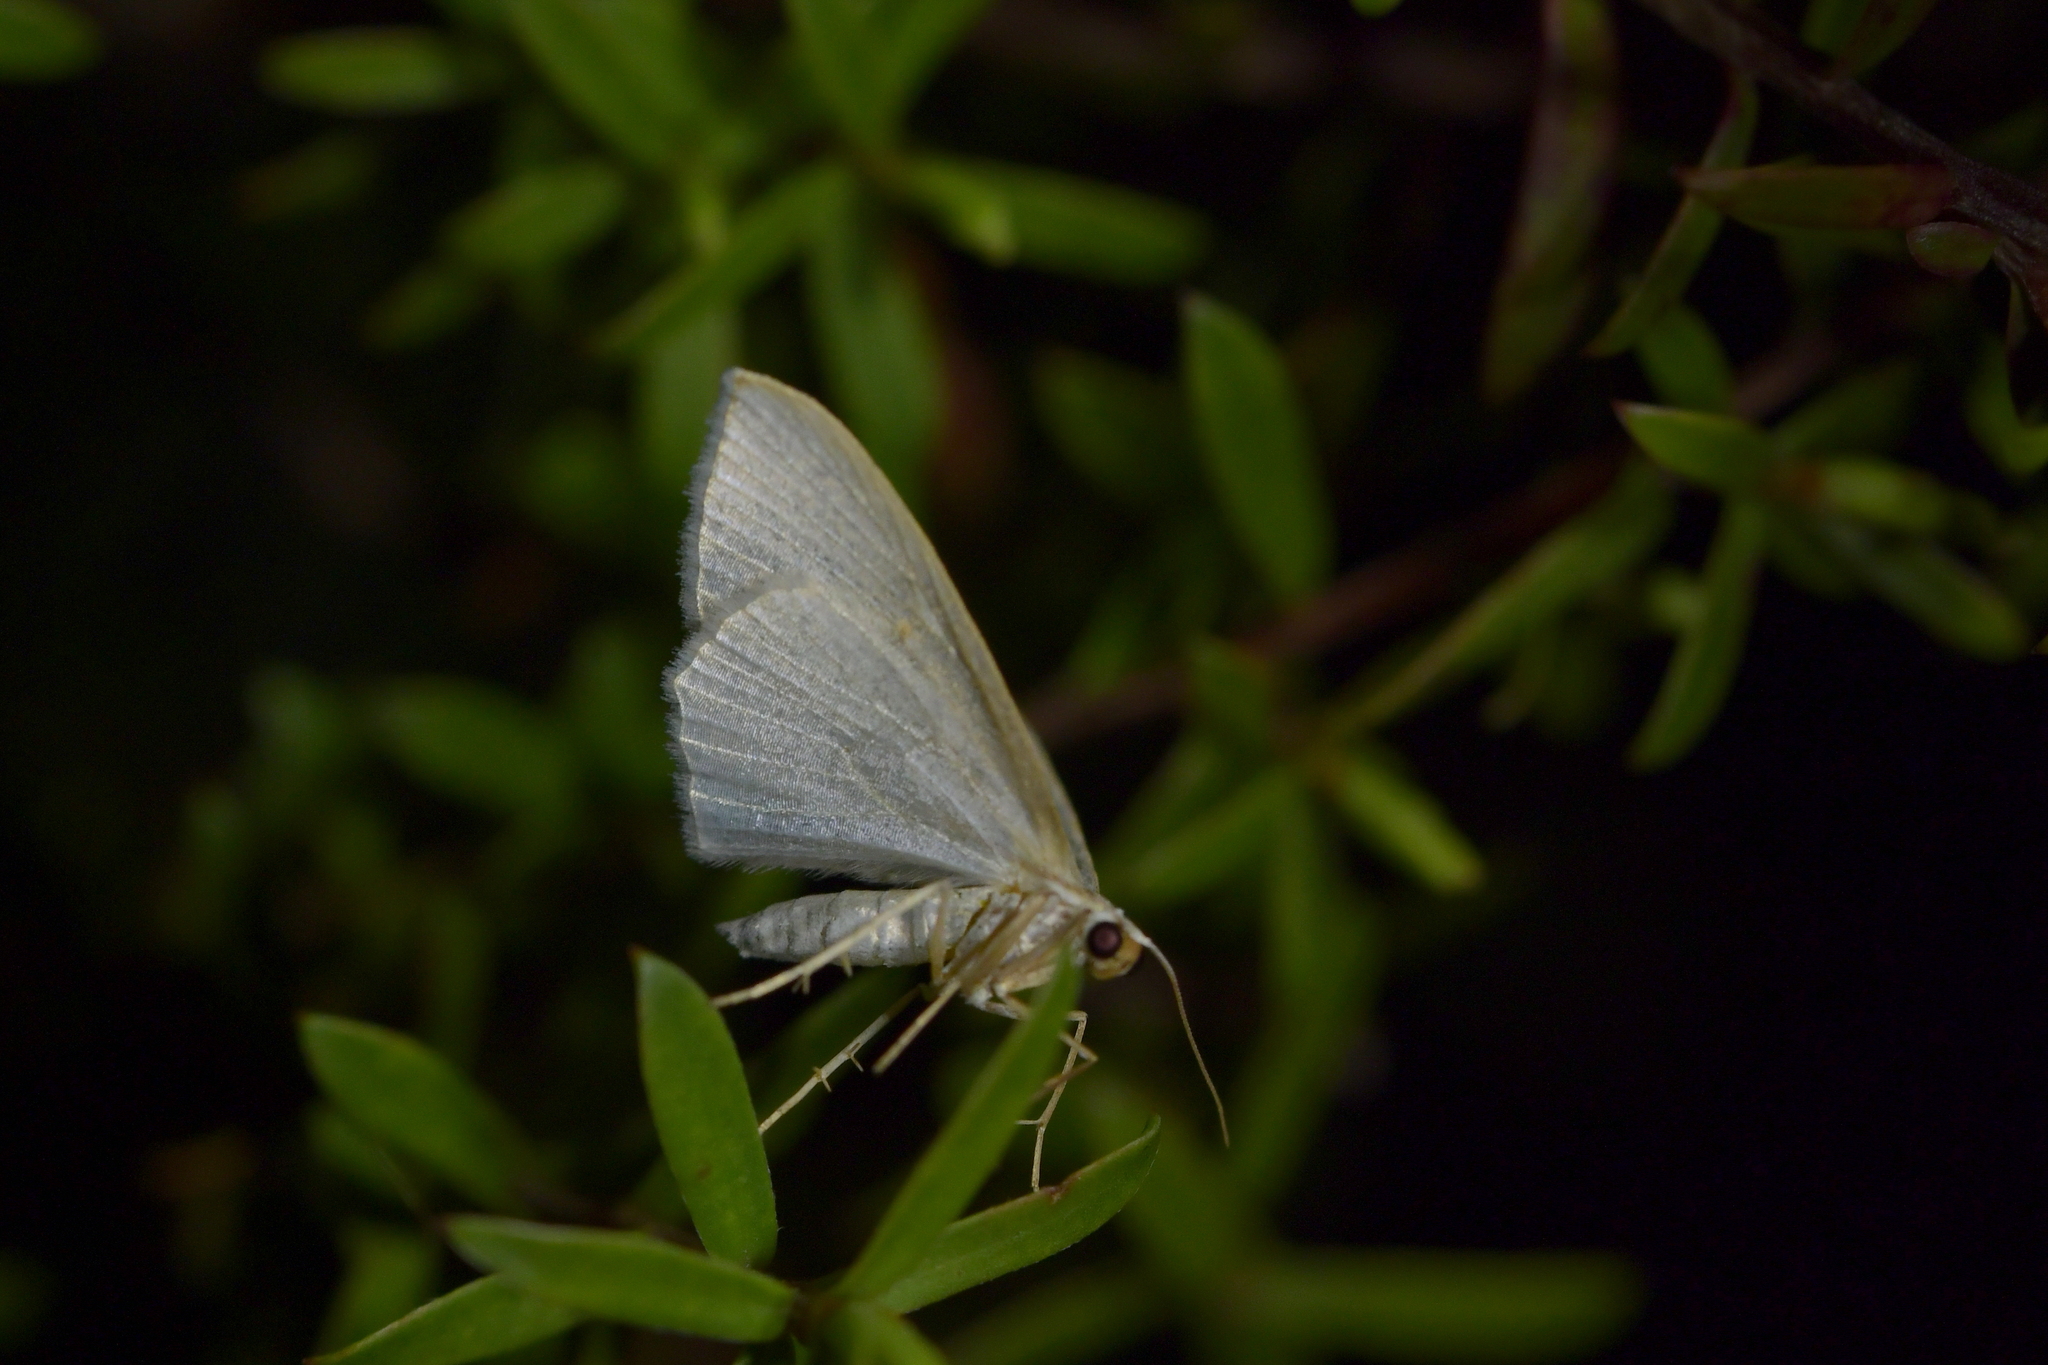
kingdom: Animalia
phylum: Arthropoda
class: Insecta
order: Lepidoptera
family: Geometridae
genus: Poecilasthena
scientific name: Poecilasthena pulchraria
